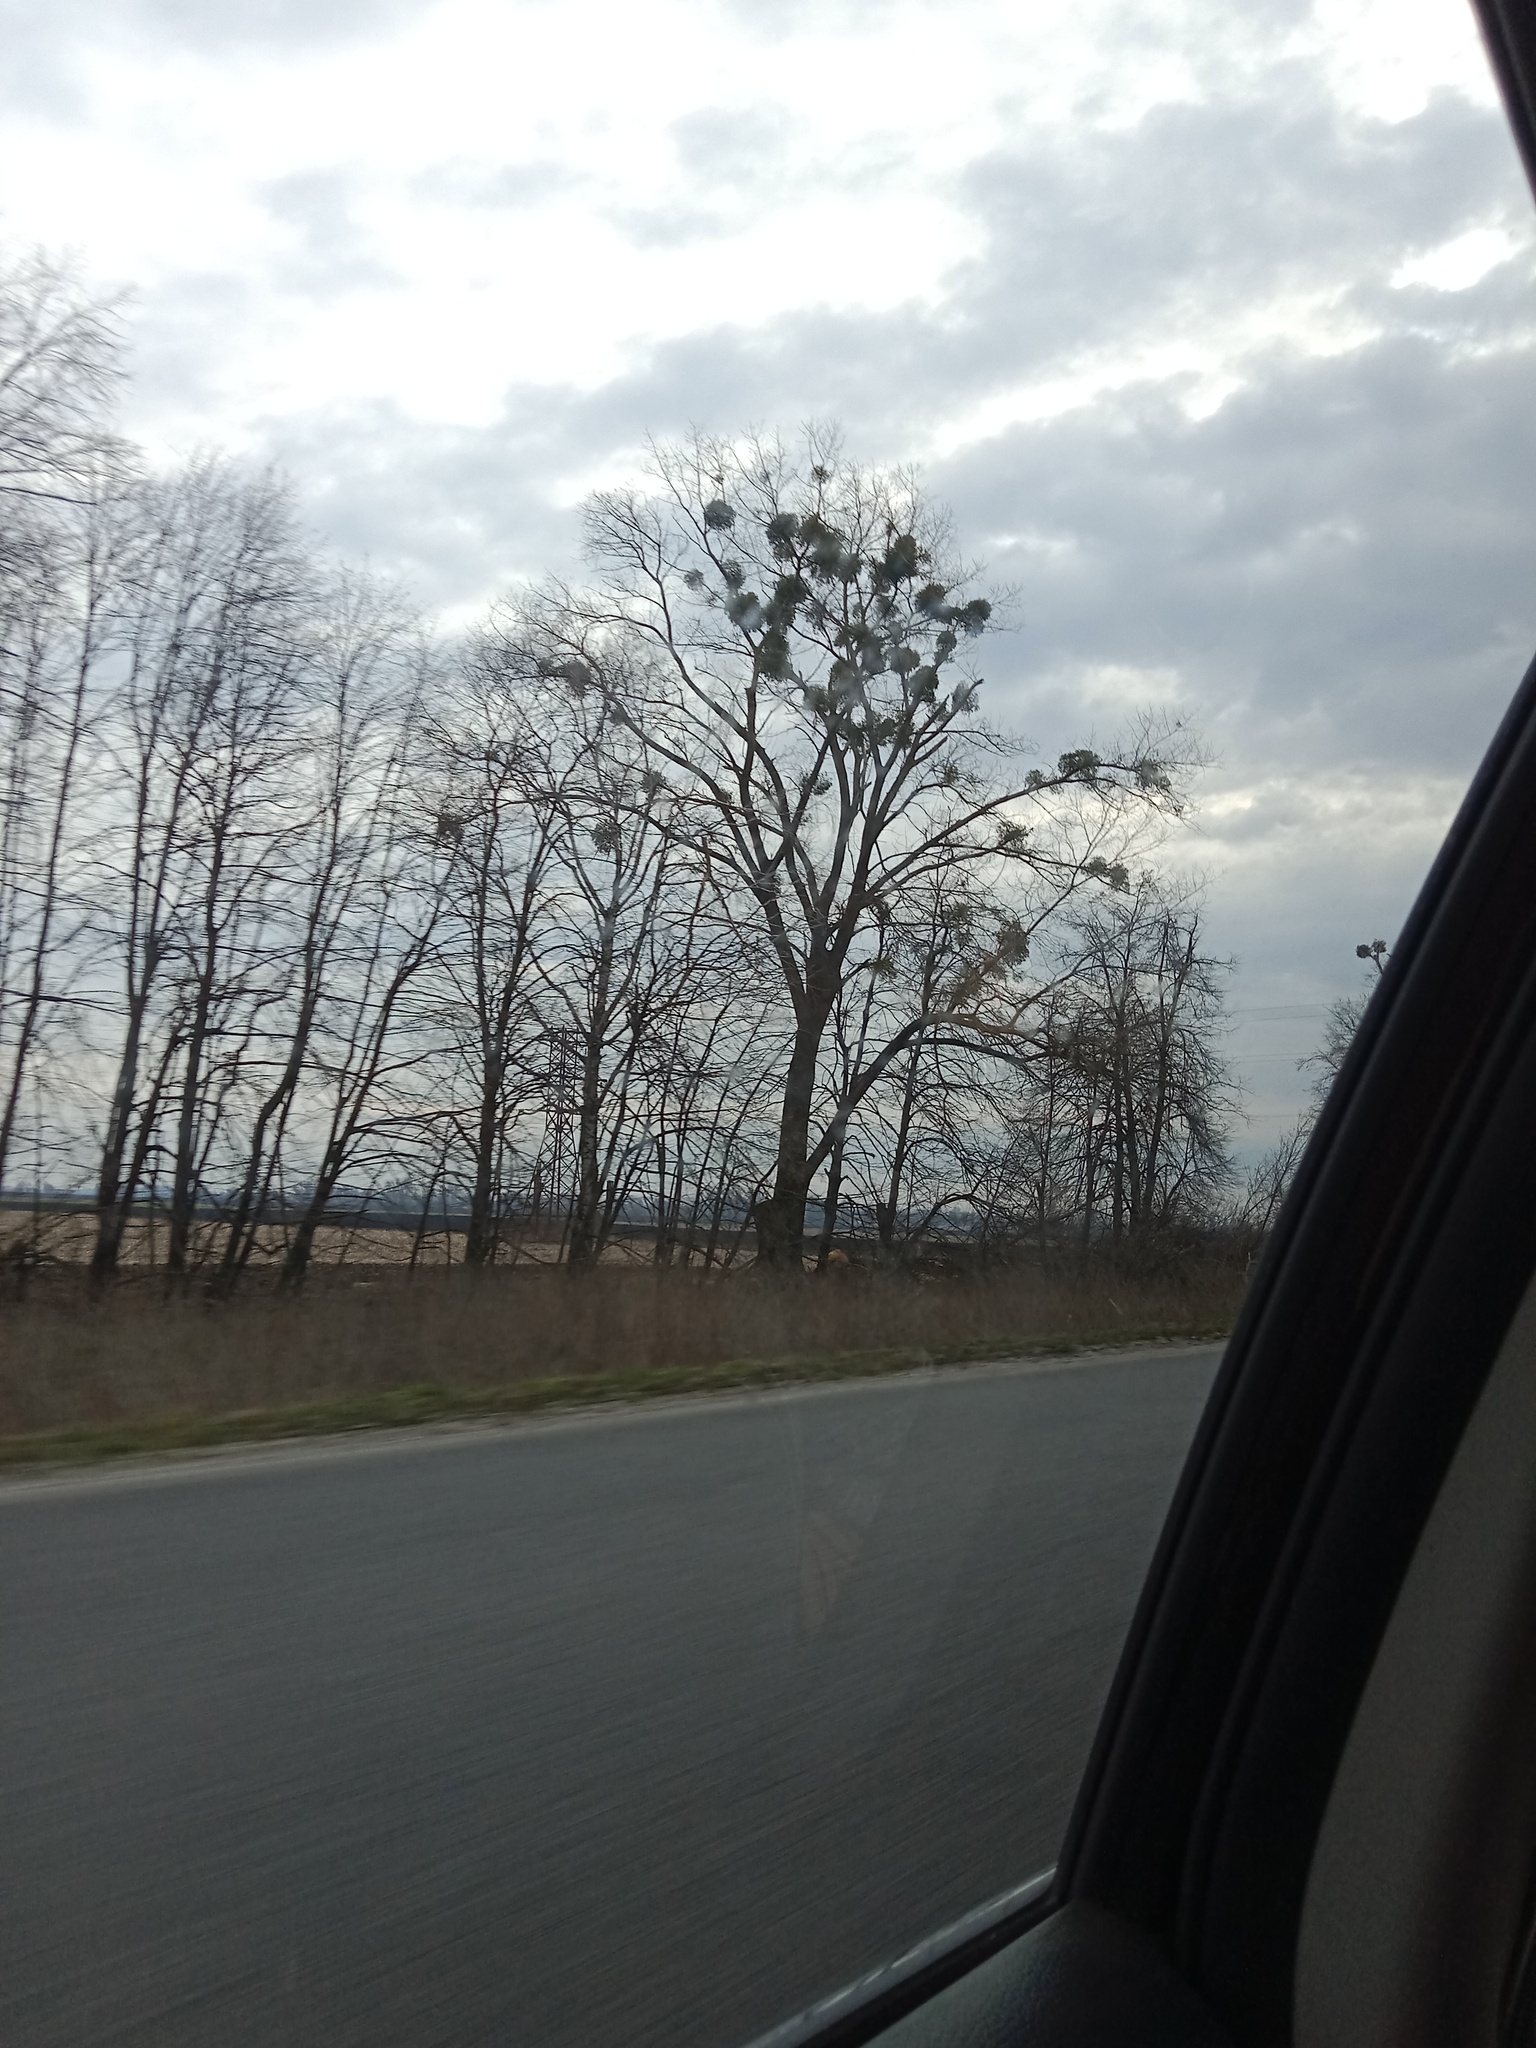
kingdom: Plantae
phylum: Tracheophyta
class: Magnoliopsida
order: Santalales
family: Viscaceae
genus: Viscum
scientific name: Viscum album
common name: Mistletoe
